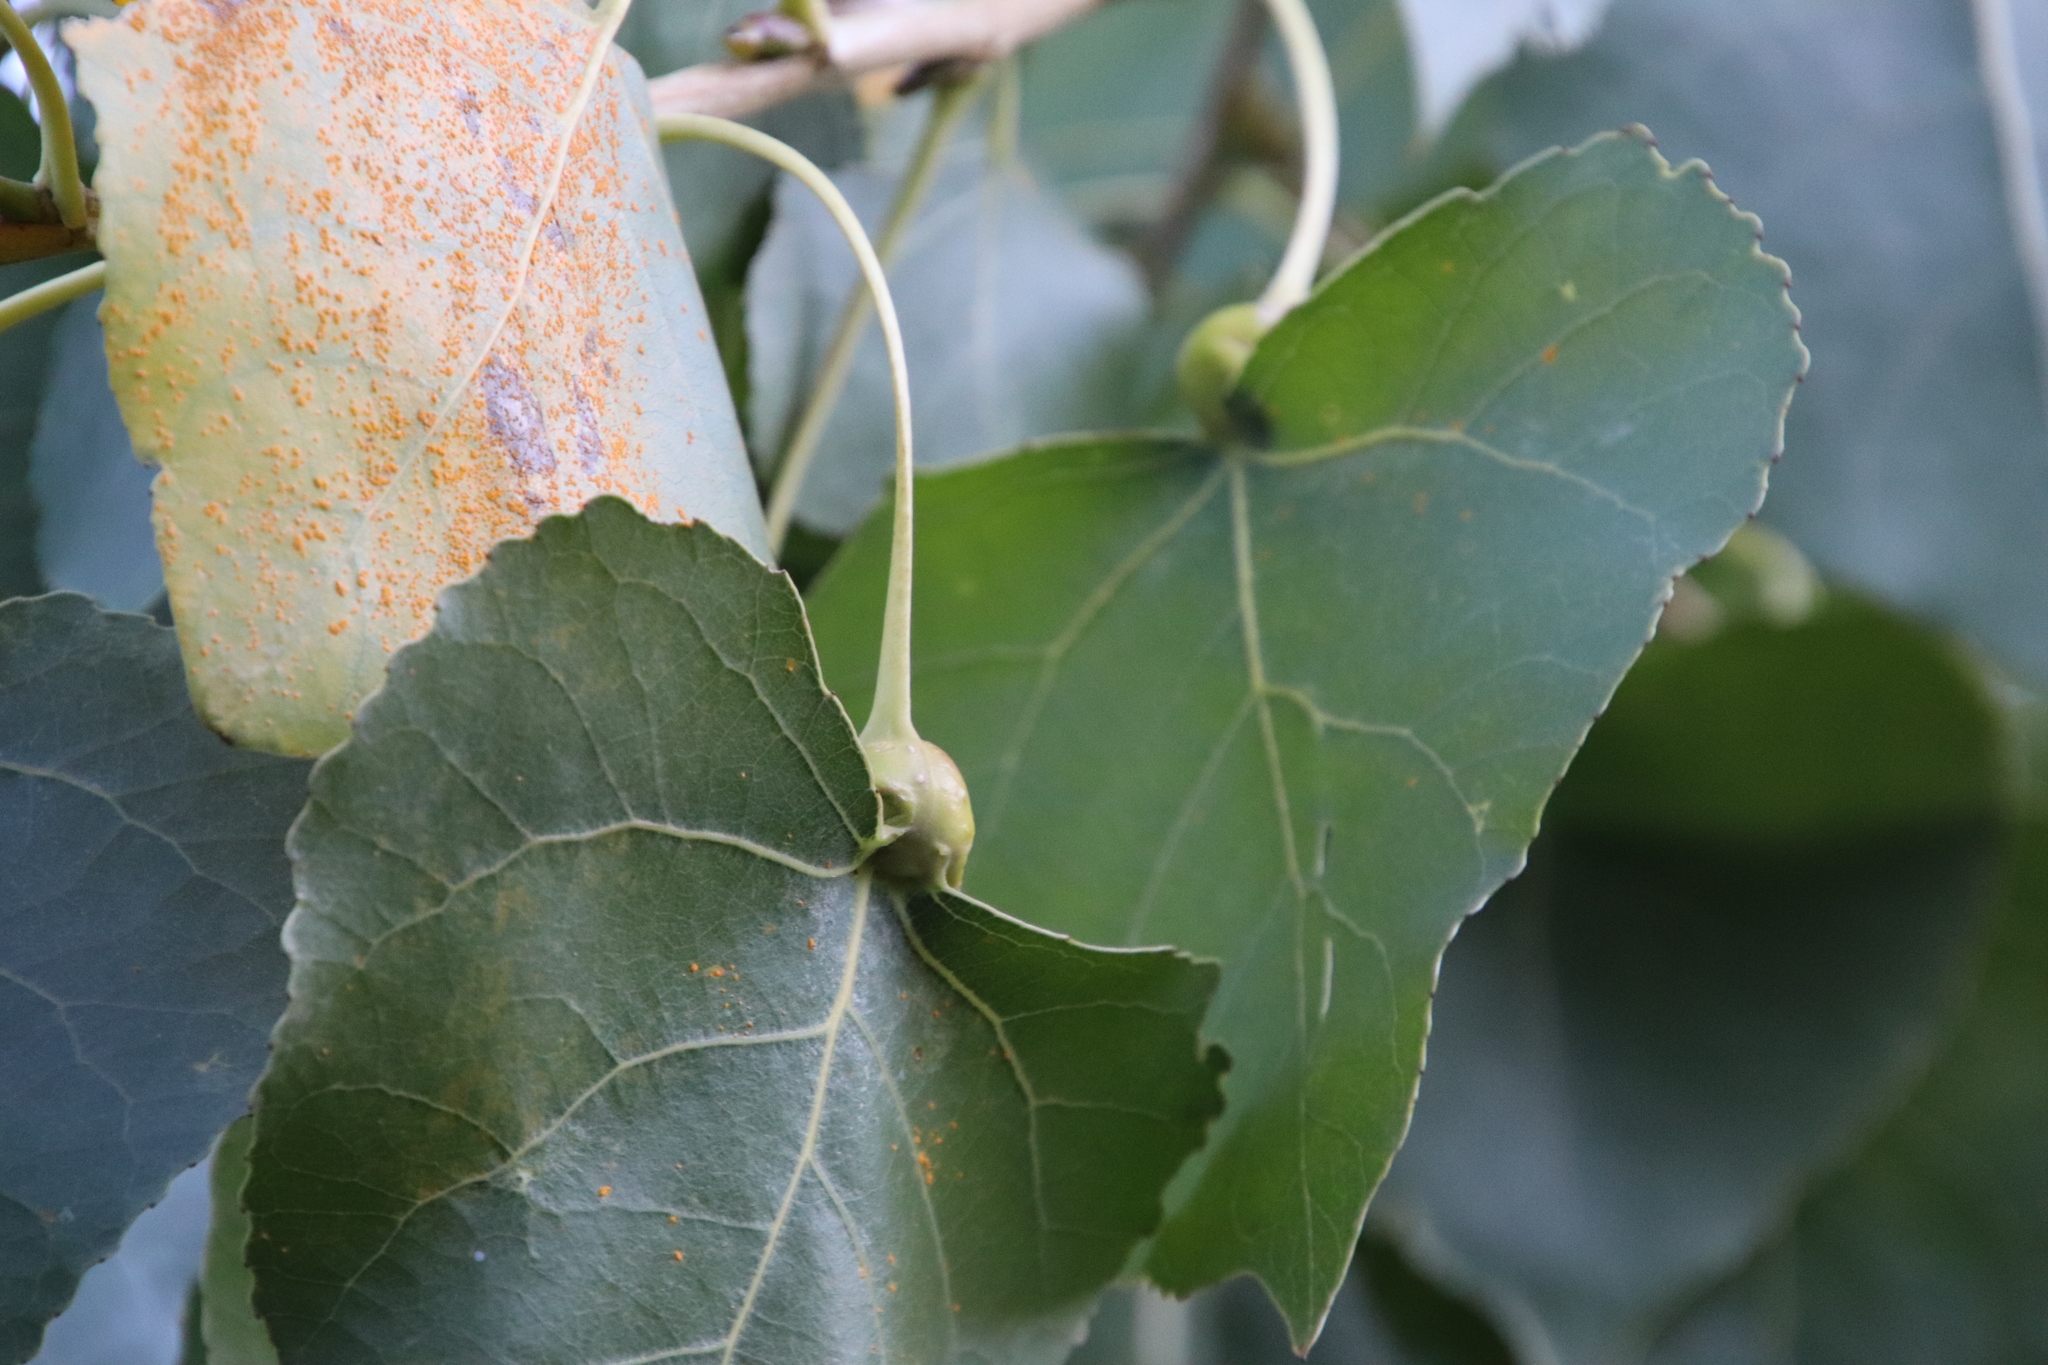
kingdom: Animalia
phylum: Arthropoda
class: Insecta
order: Hemiptera
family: Aphididae
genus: Pemphigus
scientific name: Pemphigus obesinymphae
